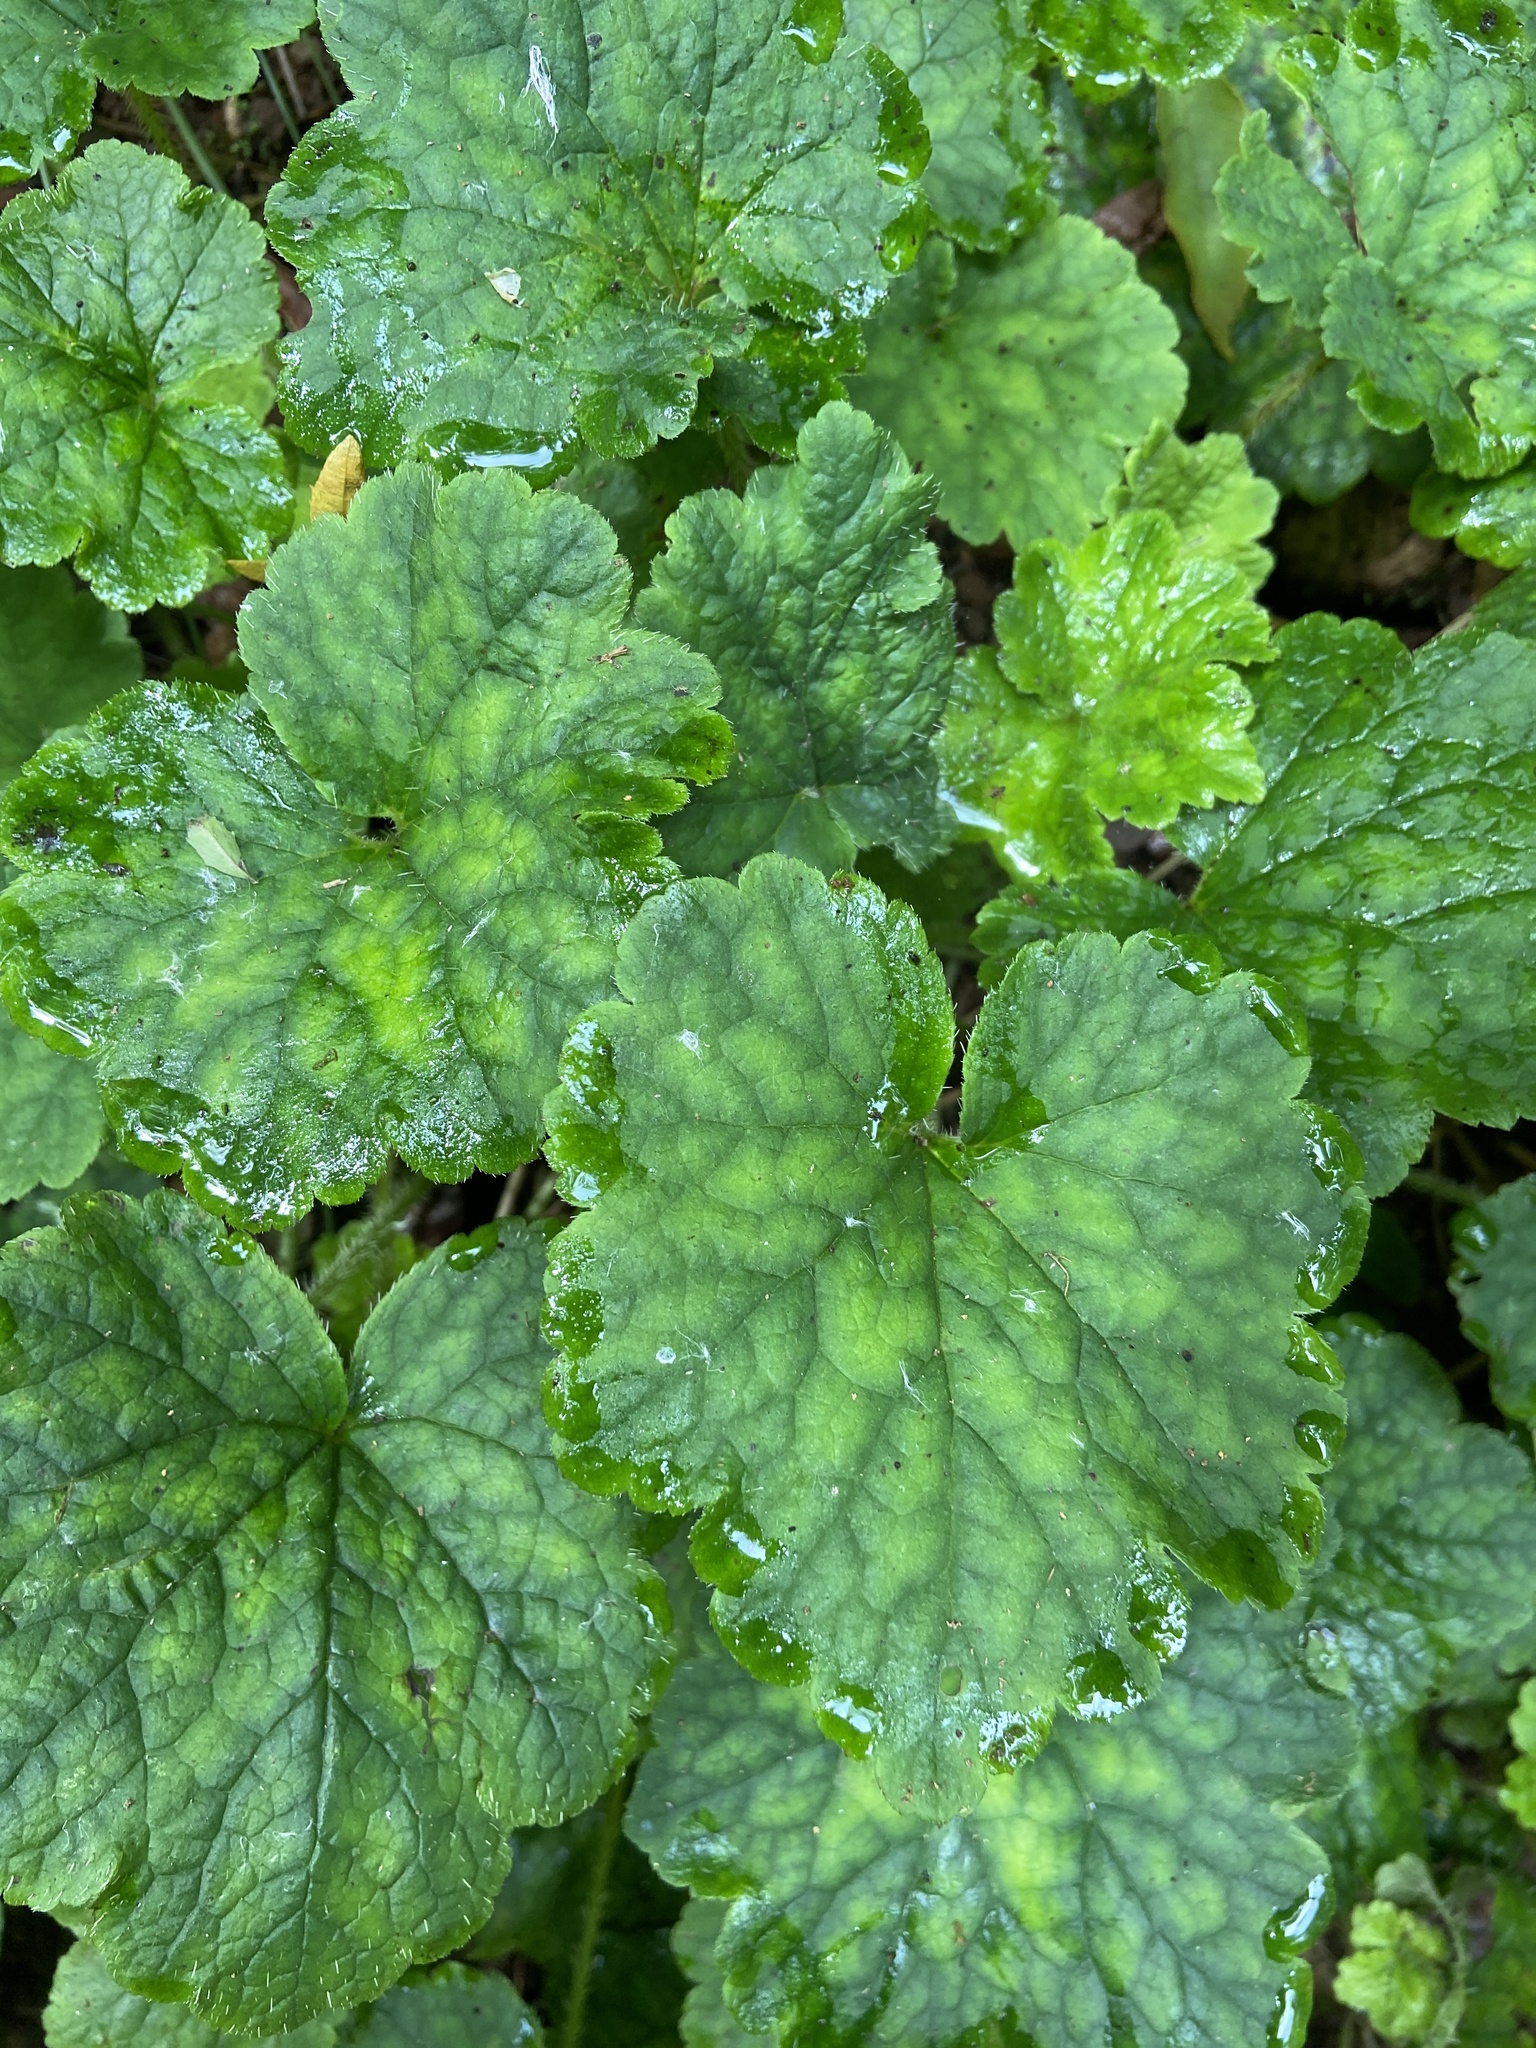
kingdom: Plantae
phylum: Tracheophyta
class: Magnoliopsida
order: Saxifragales
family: Saxifragaceae
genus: Tellima
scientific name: Tellima grandiflora
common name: Fringecups
